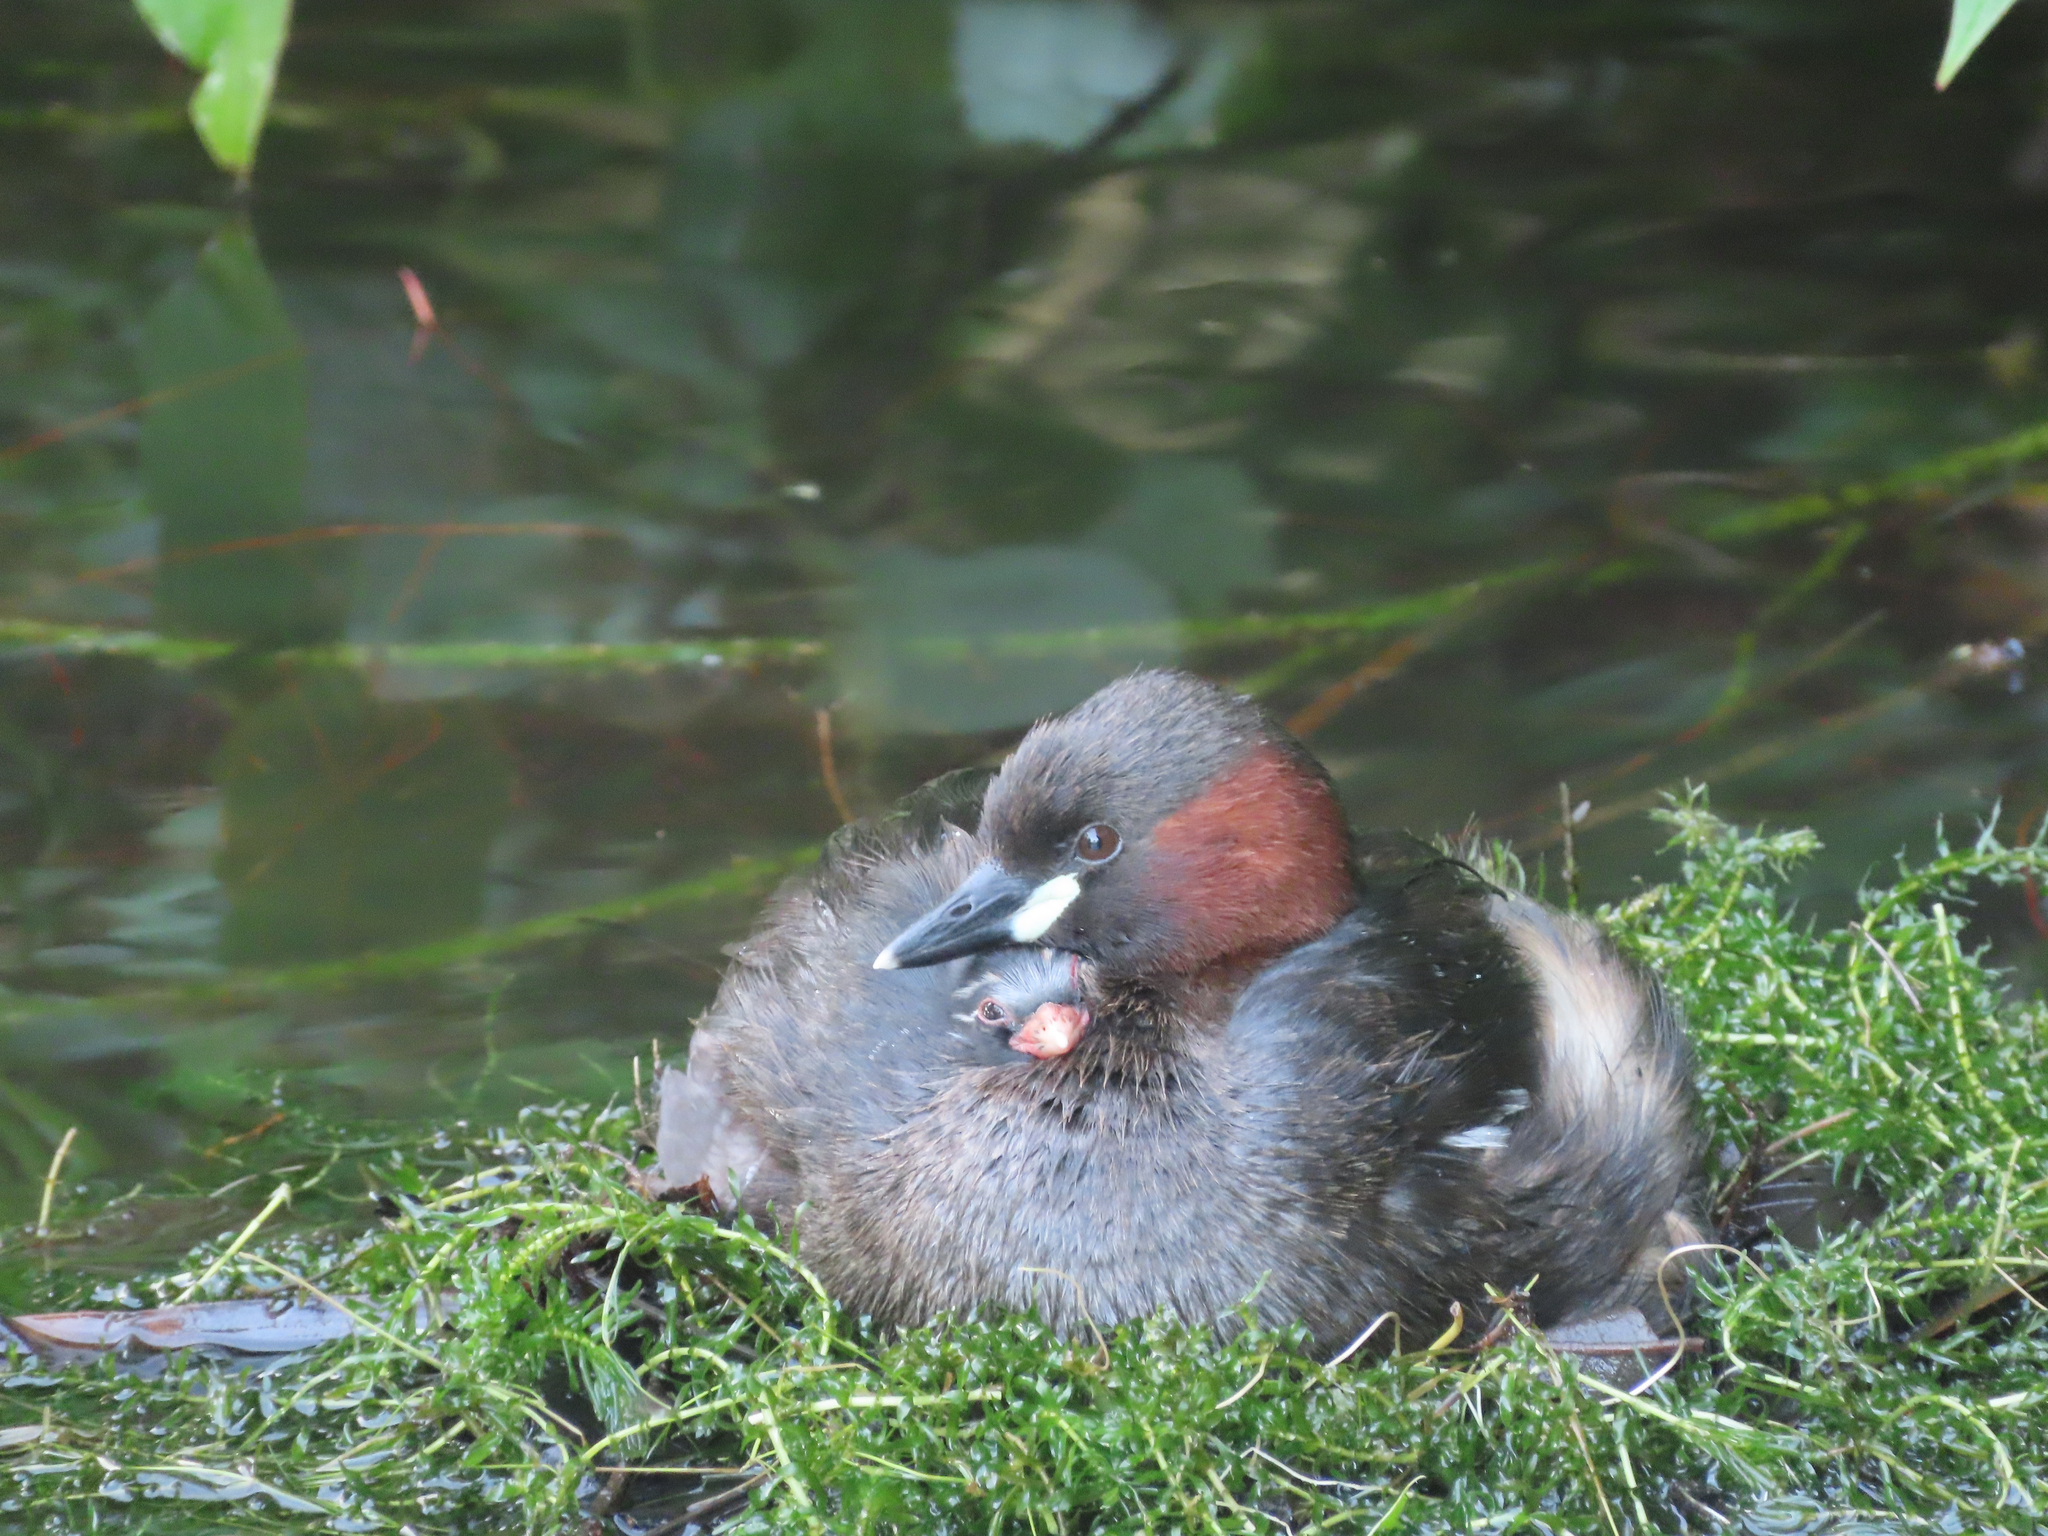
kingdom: Animalia
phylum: Chordata
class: Aves
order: Podicipediformes
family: Podicipedidae
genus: Tachybaptus
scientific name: Tachybaptus ruficollis
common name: Little grebe
